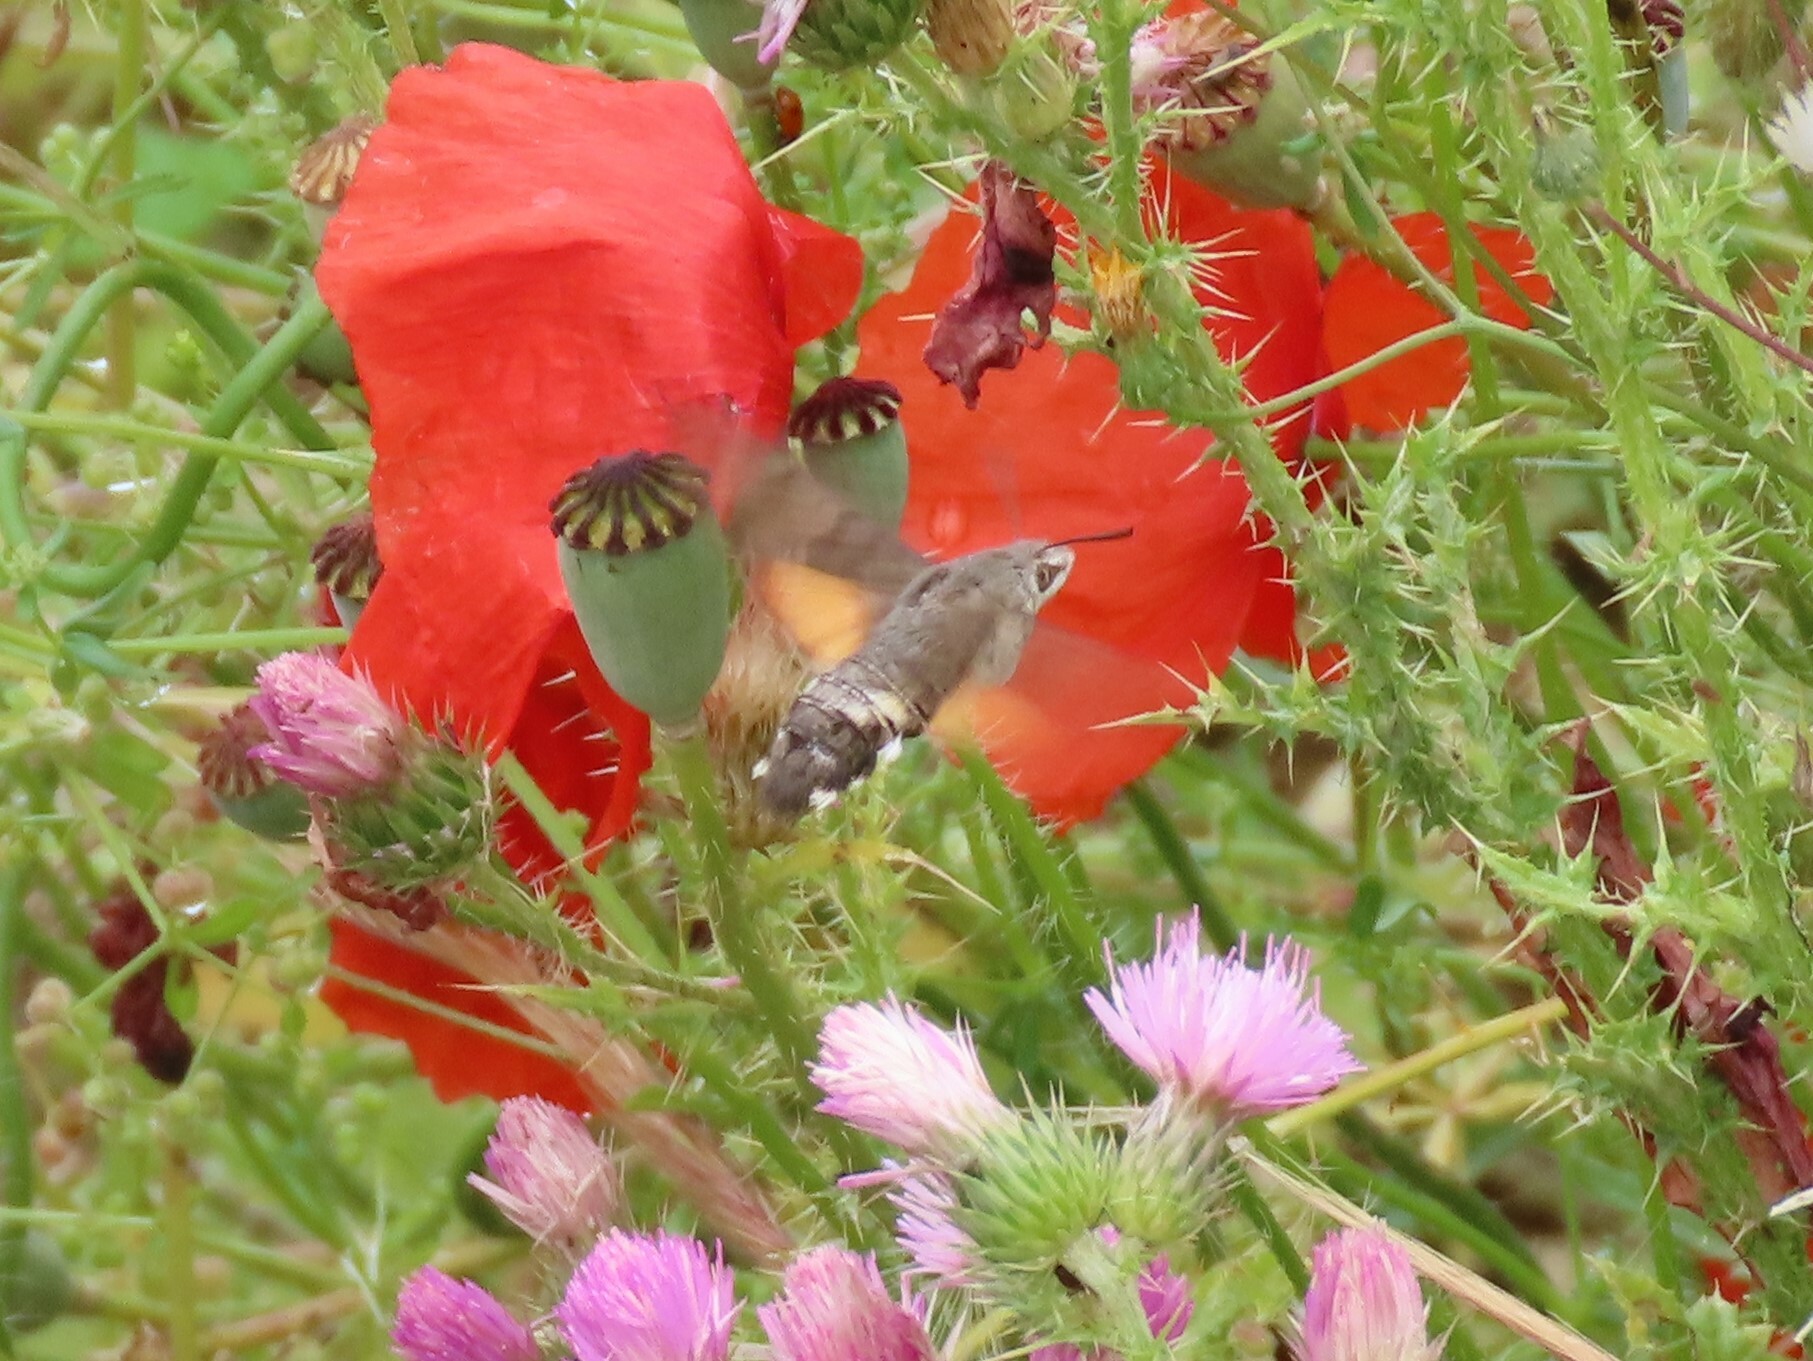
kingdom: Animalia
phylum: Arthropoda
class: Insecta
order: Lepidoptera
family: Sphingidae
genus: Macroglossum
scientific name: Macroglossum stellatarum
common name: Humming-bird hawk-moth
